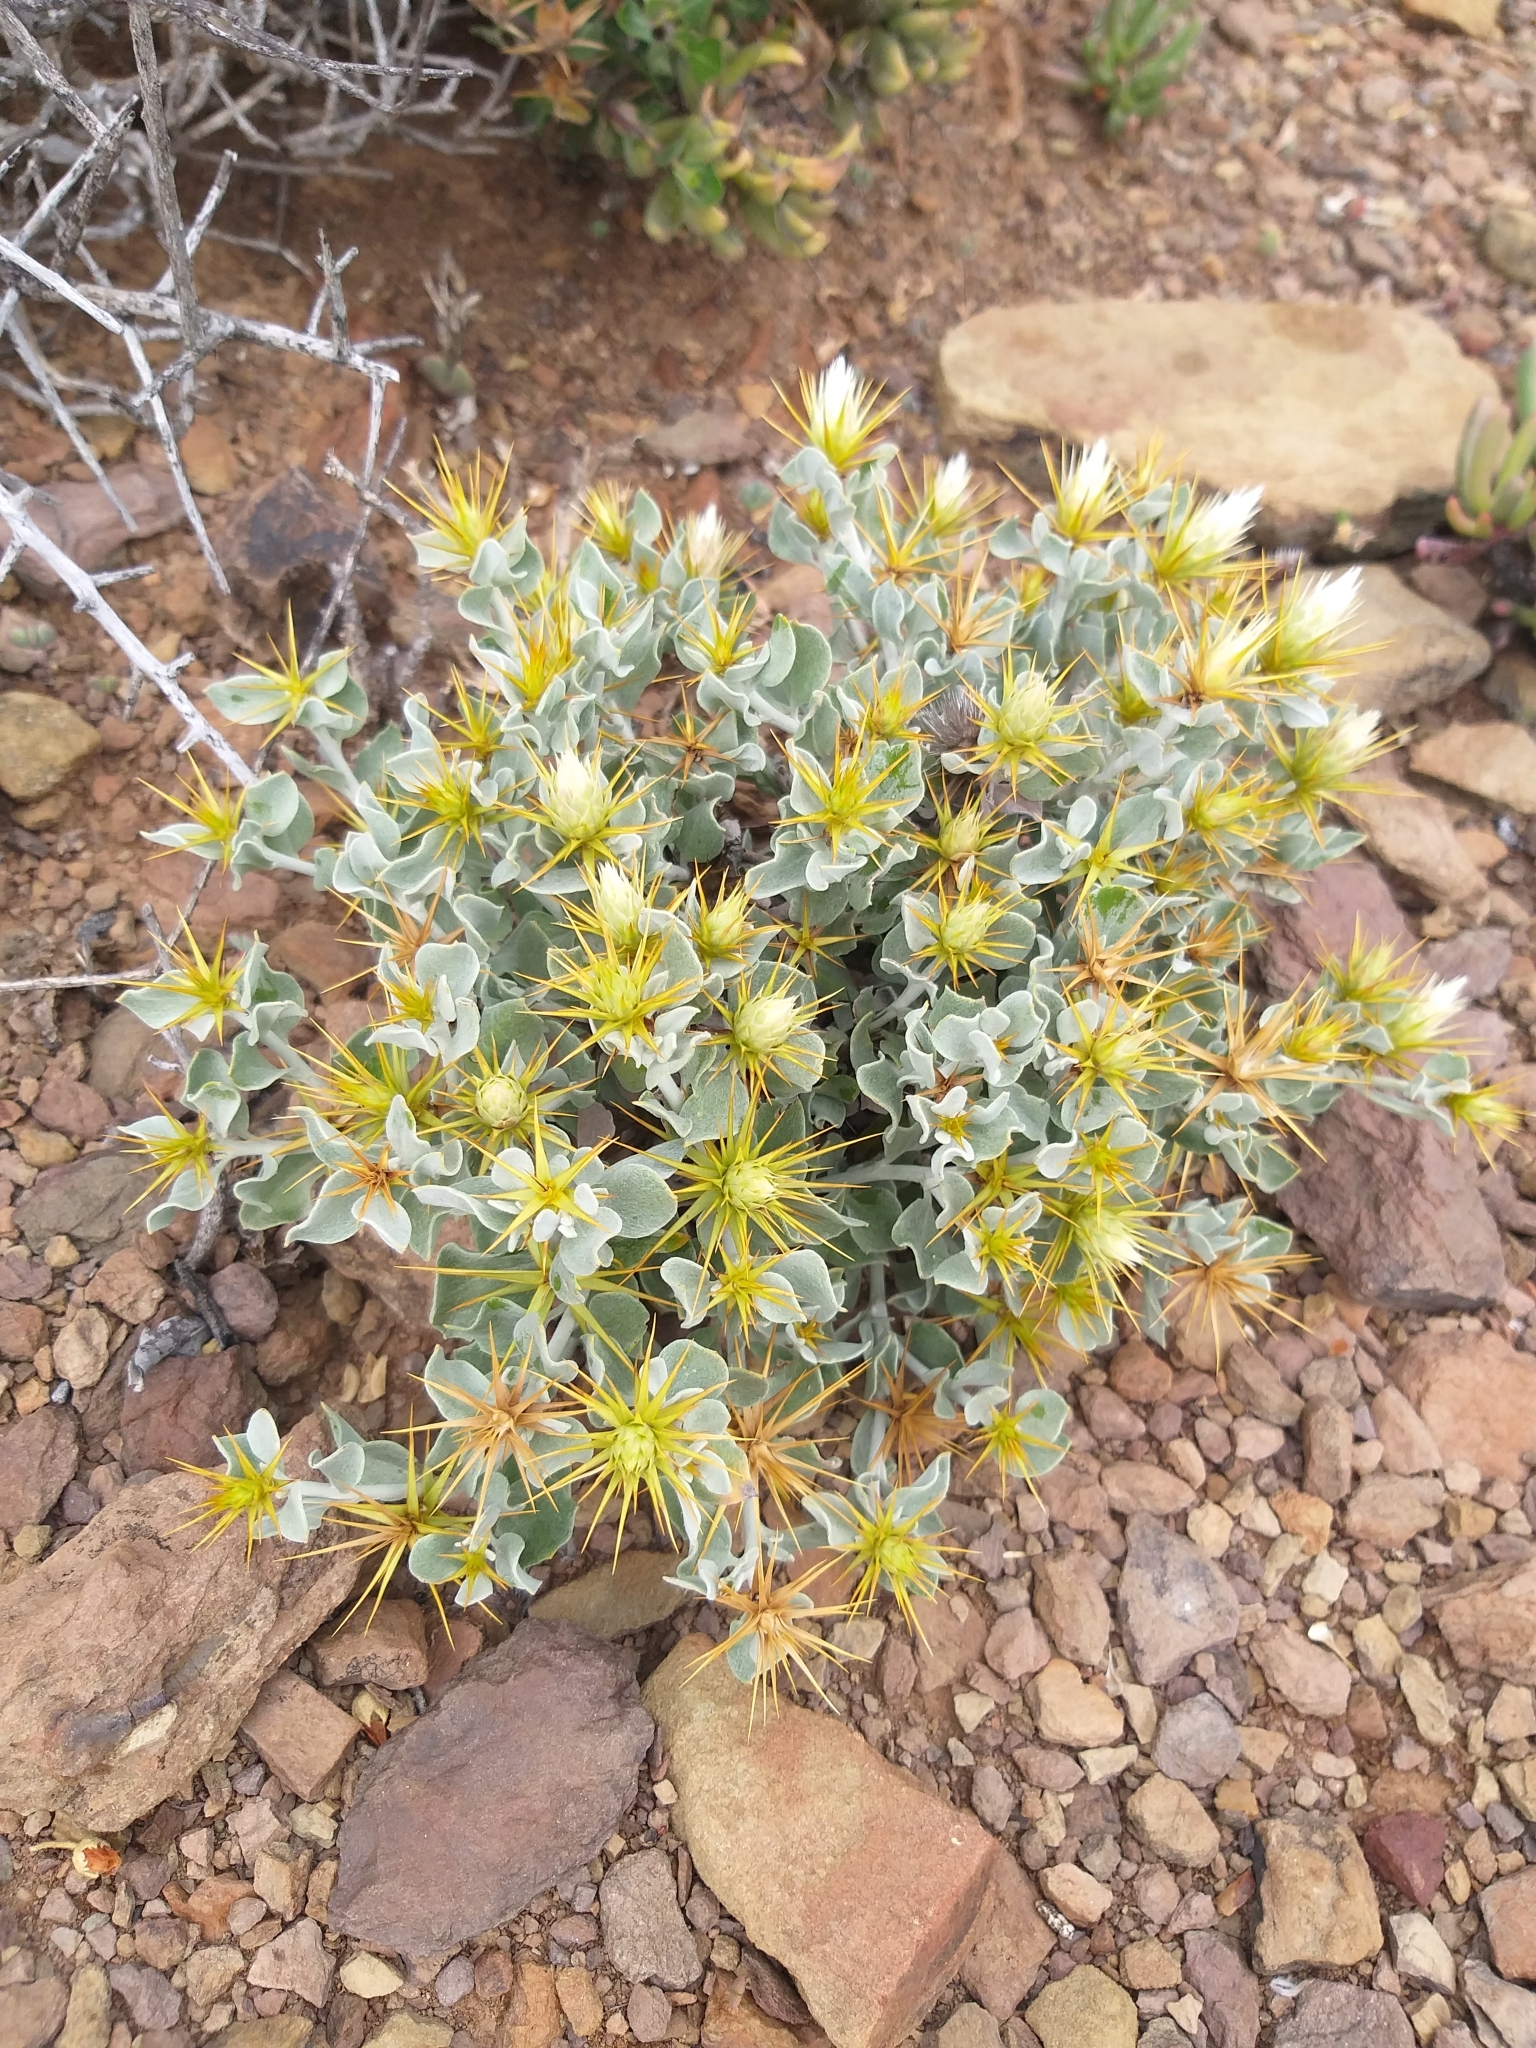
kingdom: Plantae
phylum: Tracheophyta
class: Magnoliopsida
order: Asterales
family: Asteraceae
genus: Macledium
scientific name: Macledium spinosum
